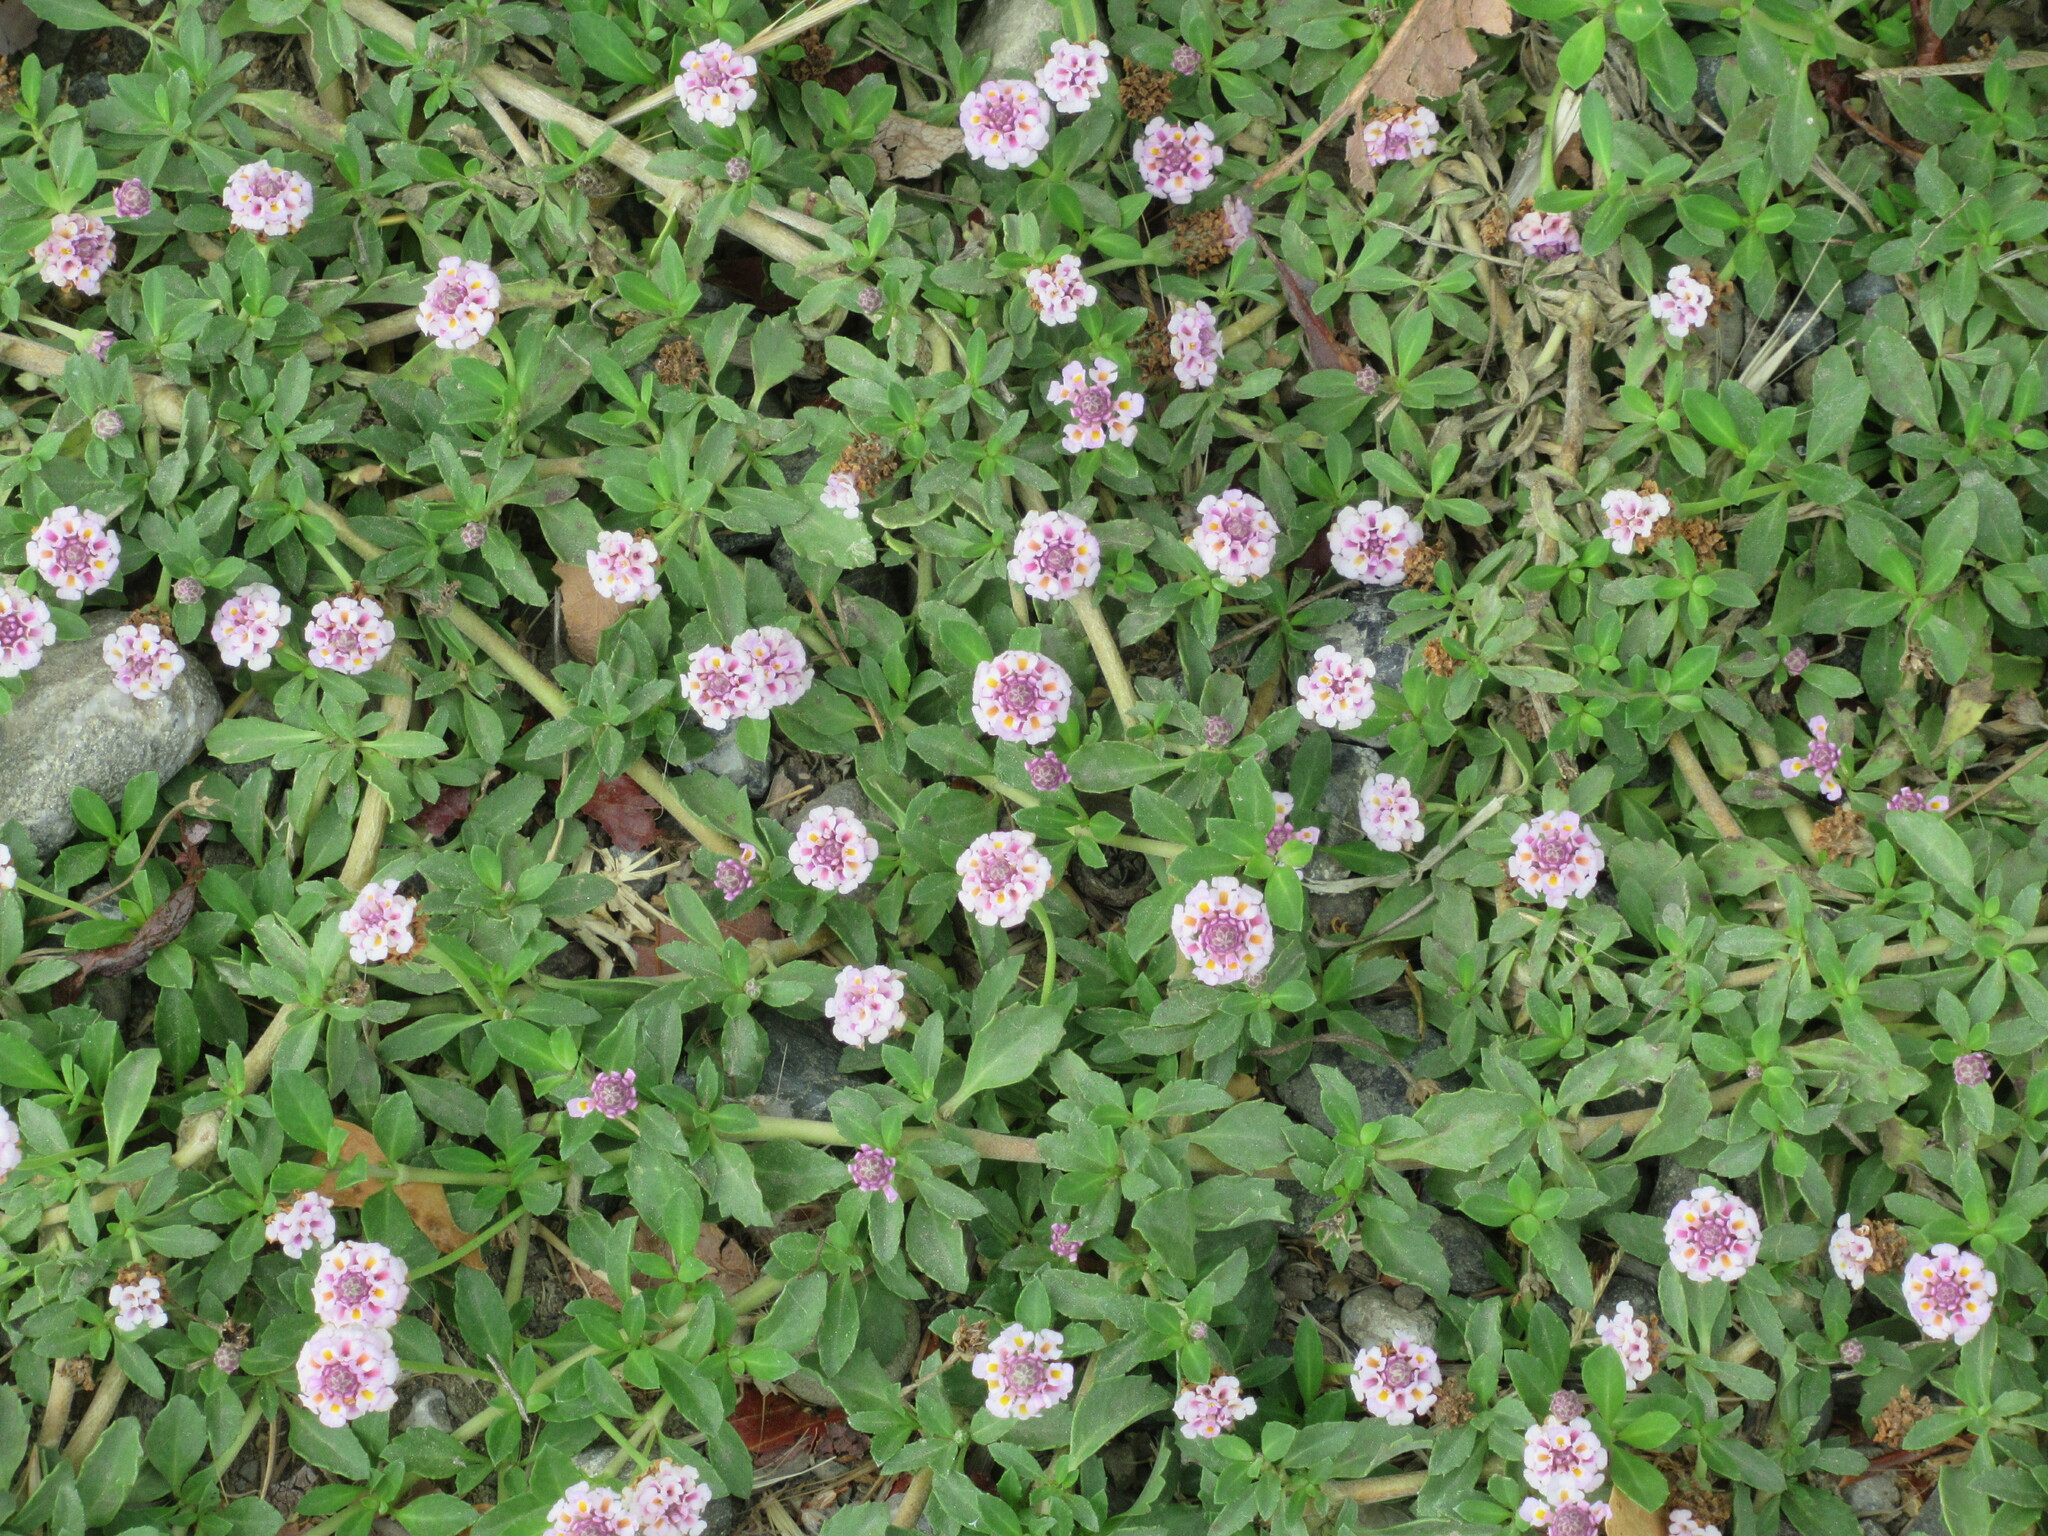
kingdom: Plantae
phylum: Tracheophyta
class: Magnoliopsida
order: Lamiales
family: Verbenaceae
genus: Phyla
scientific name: Phyla nodiflora
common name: Frogfruit
